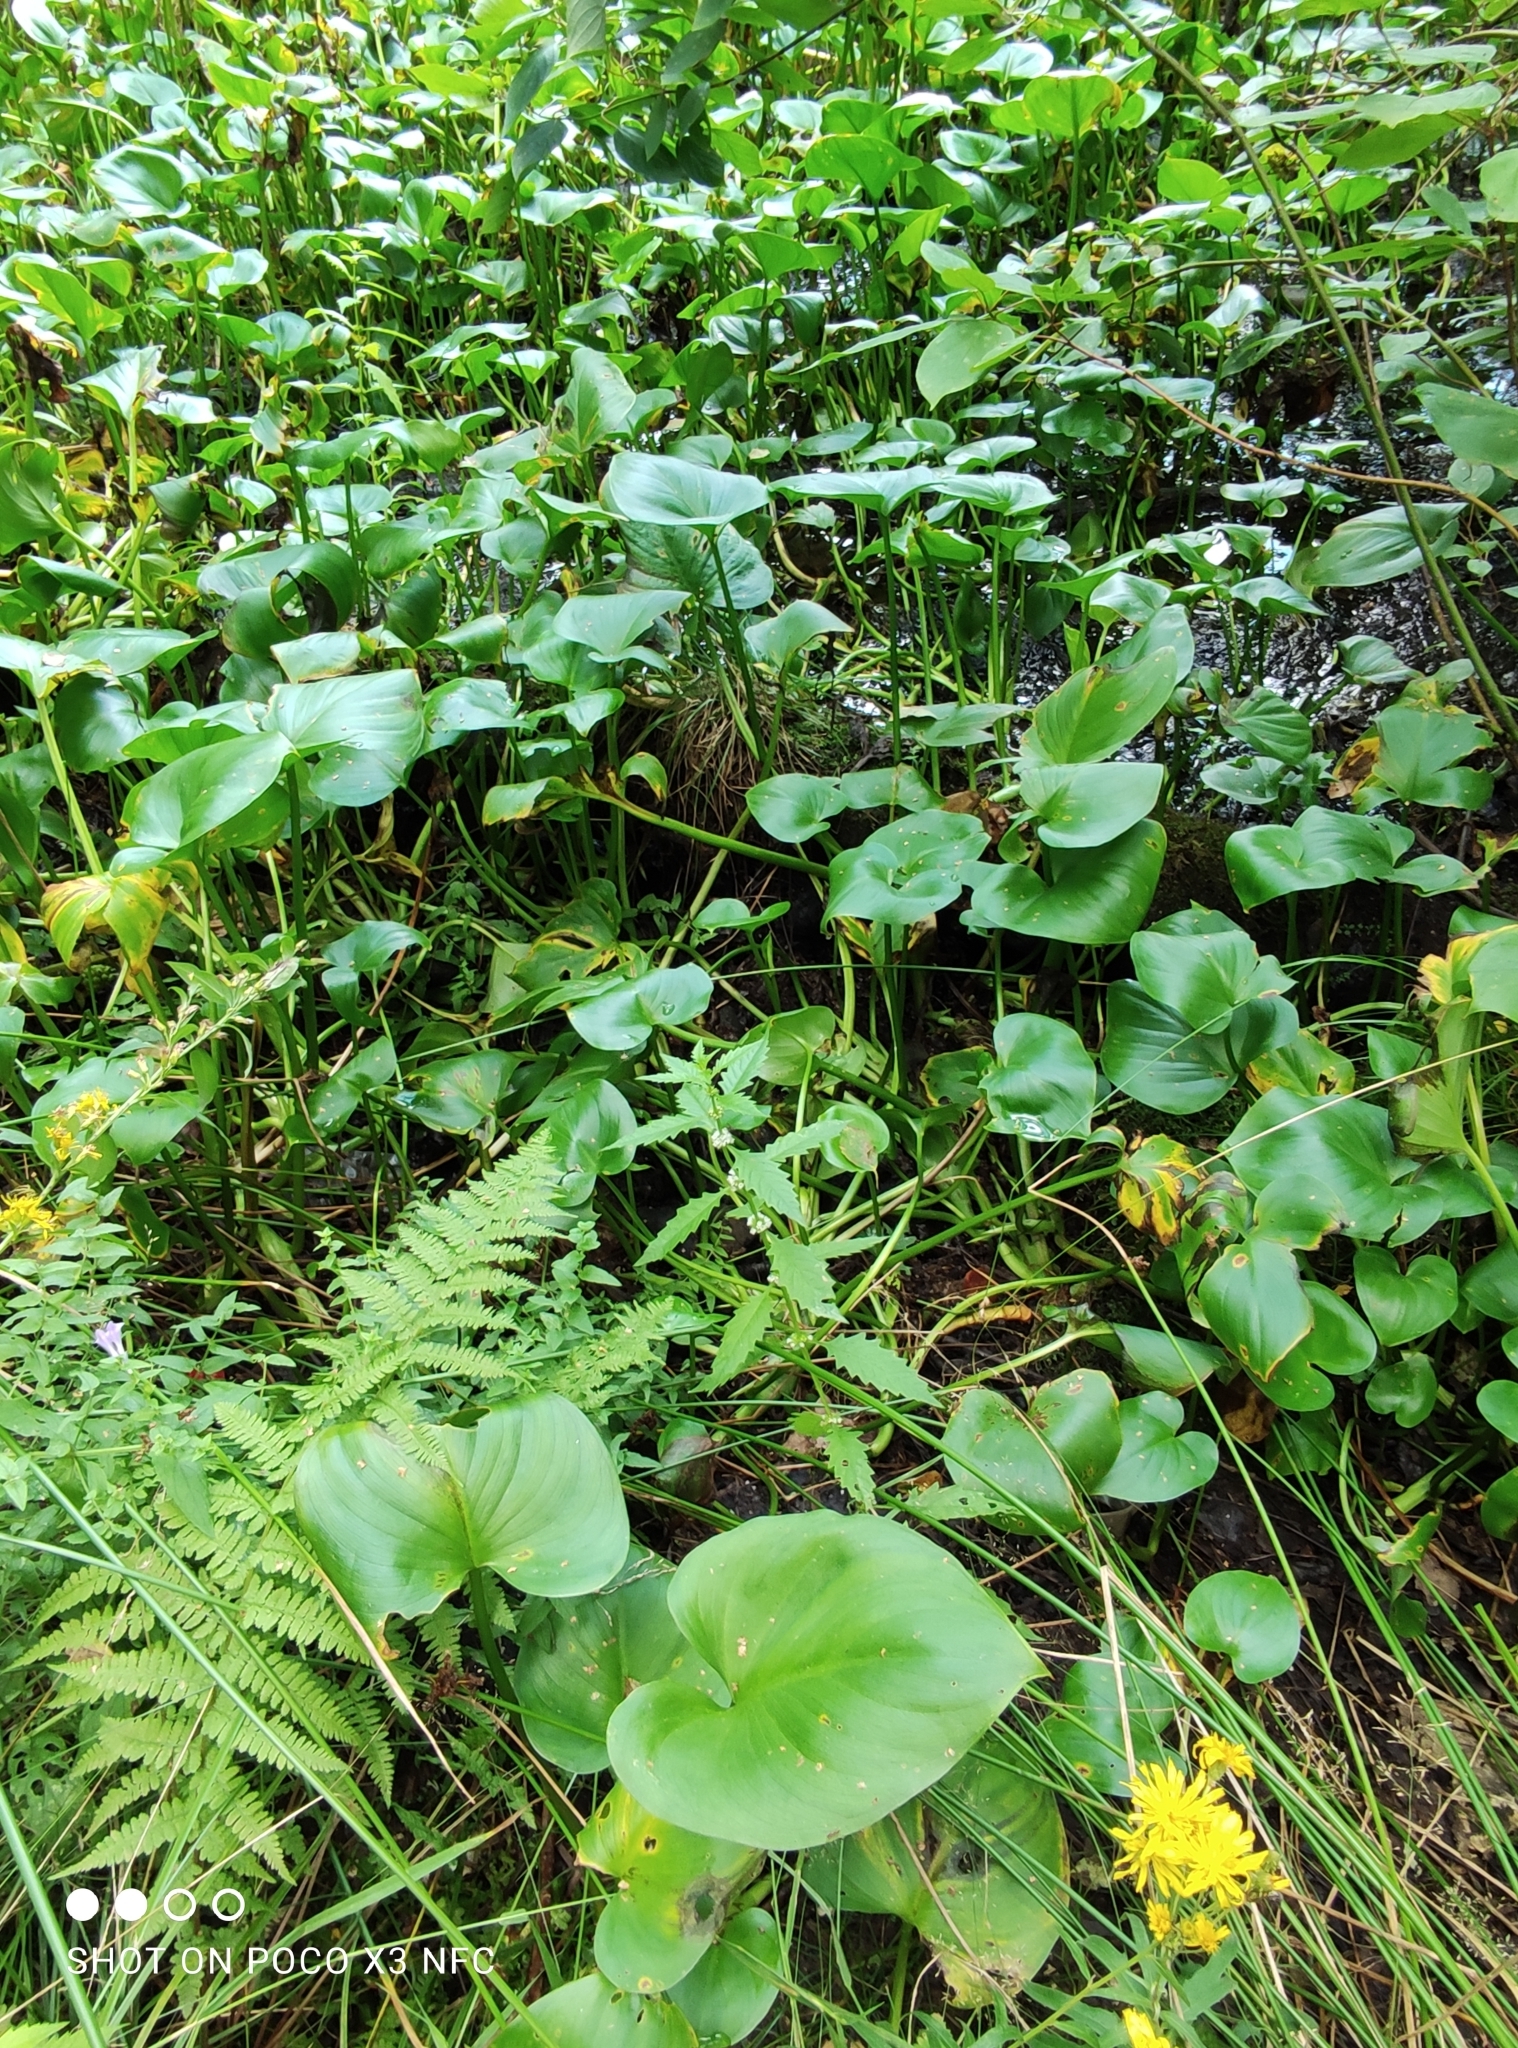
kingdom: Plantae
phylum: Tracheophyta
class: Liliopsida
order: Alismatales
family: Araceae
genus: Calla
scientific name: Calla palustris
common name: Bog arum
